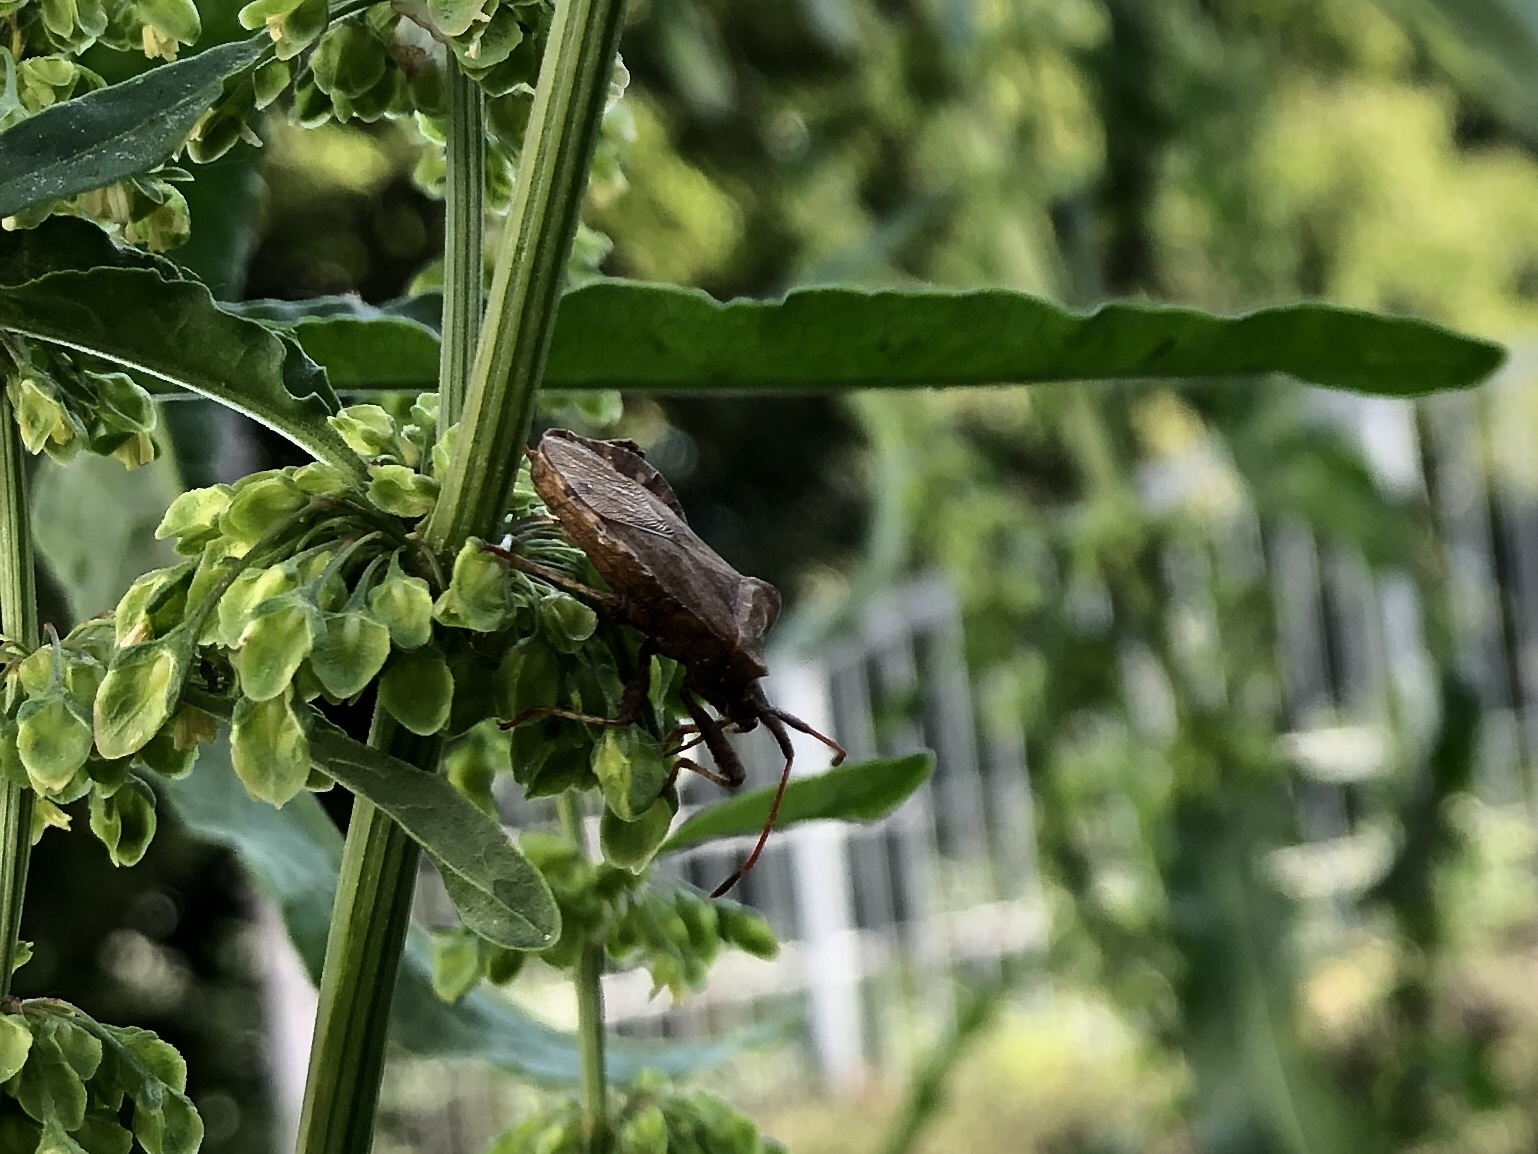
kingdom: Animalia
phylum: Arthropoda
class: Insecta
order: Hemiptera
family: Coreidae
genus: Coreus
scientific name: Coreus marginatus
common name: Dock bug
